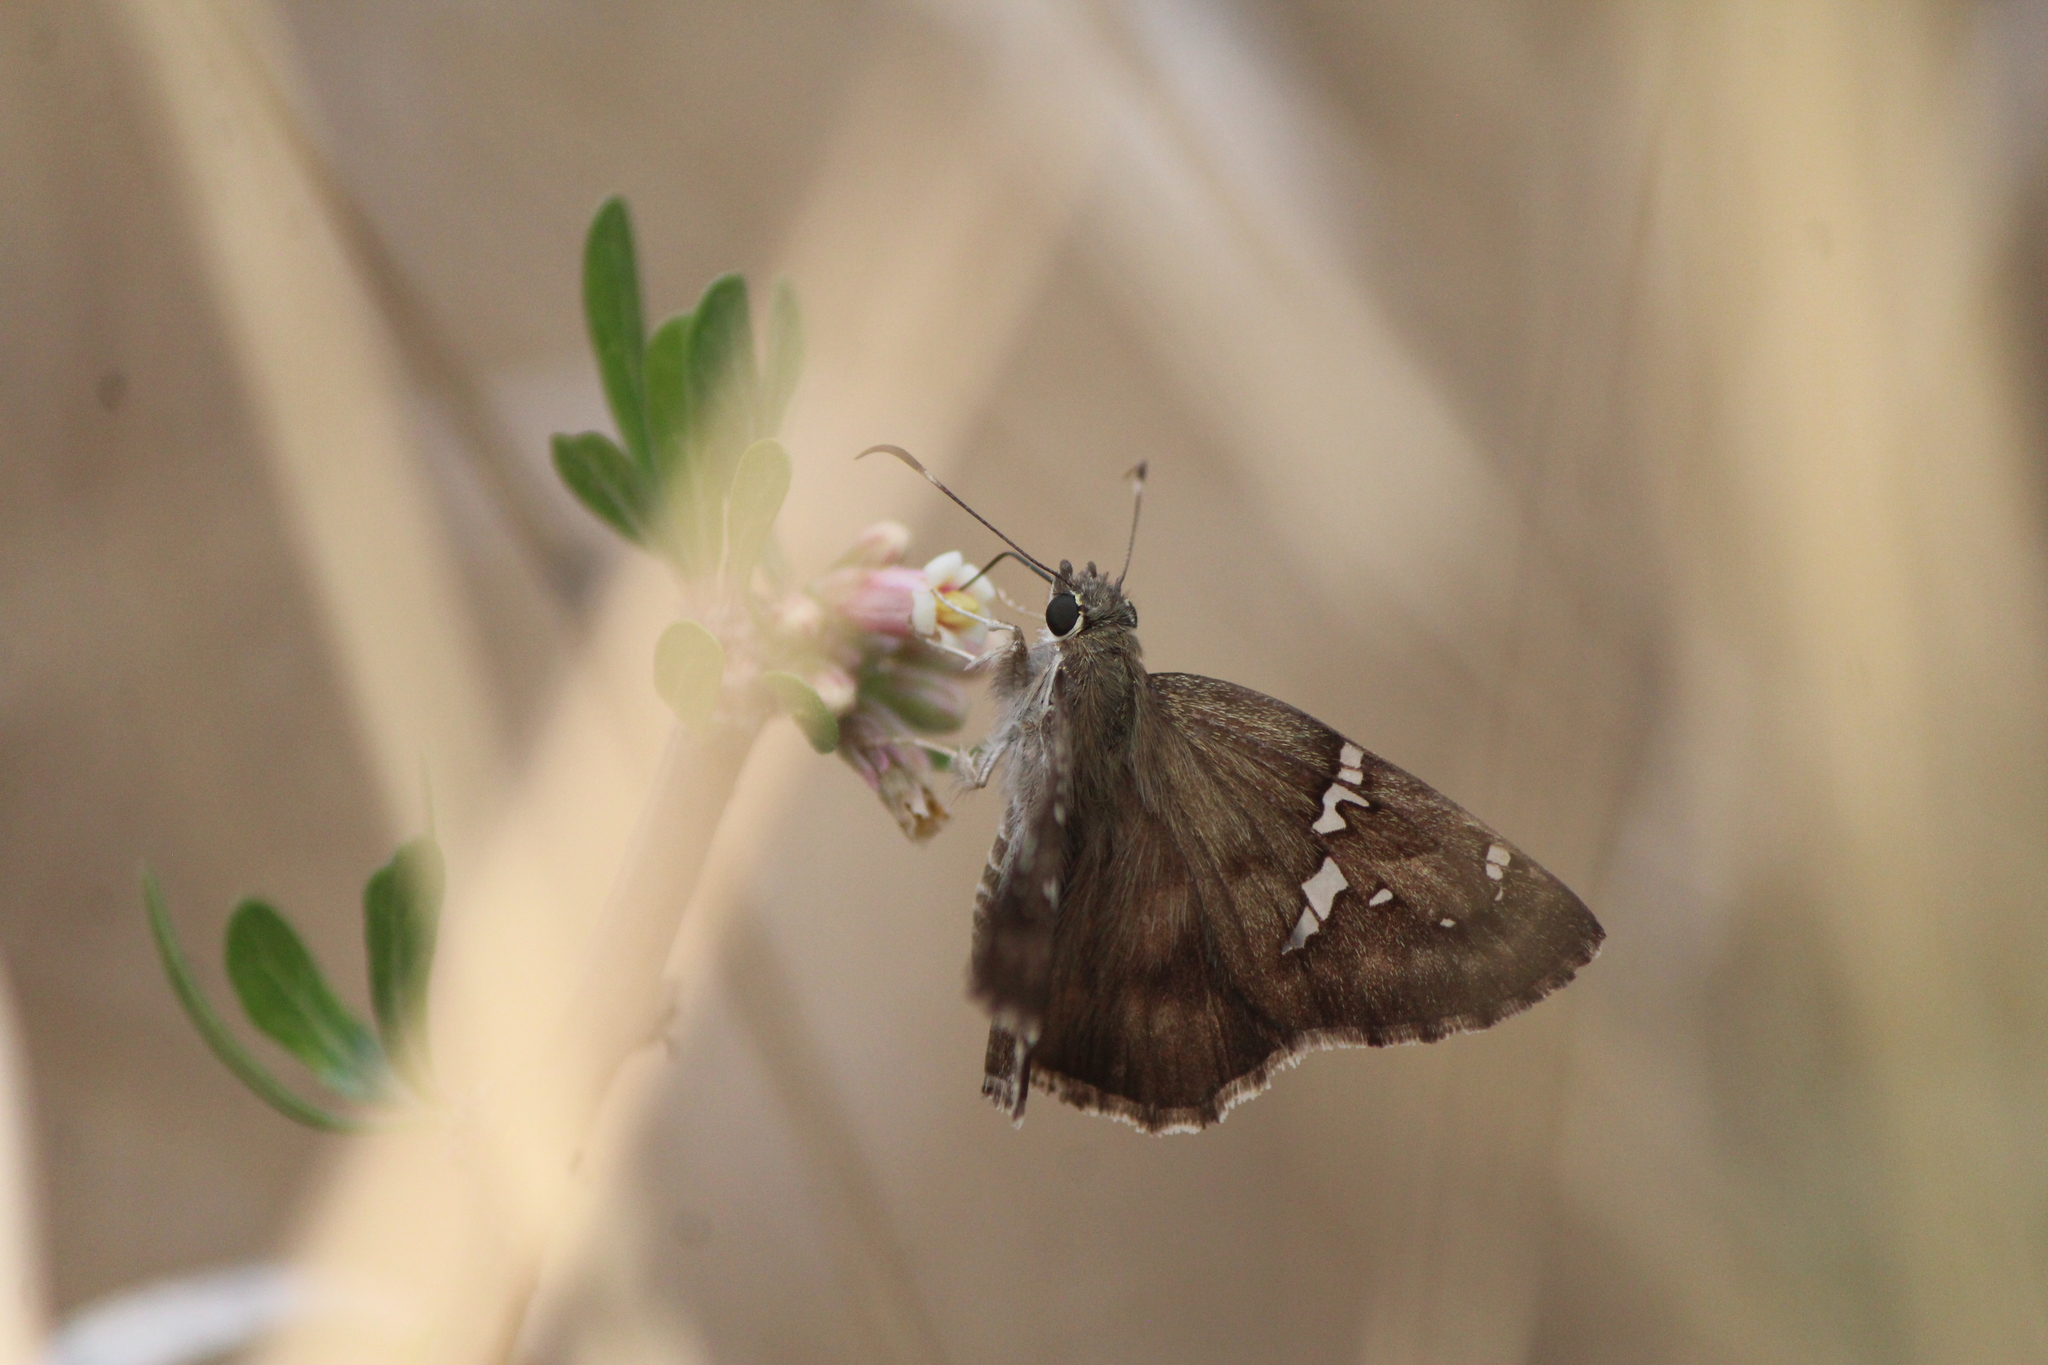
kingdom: Animalia
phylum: Arthropoda
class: Insecta
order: Lepidoptera
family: Hesperiidae
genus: Autochton
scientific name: Autochton potrillo
